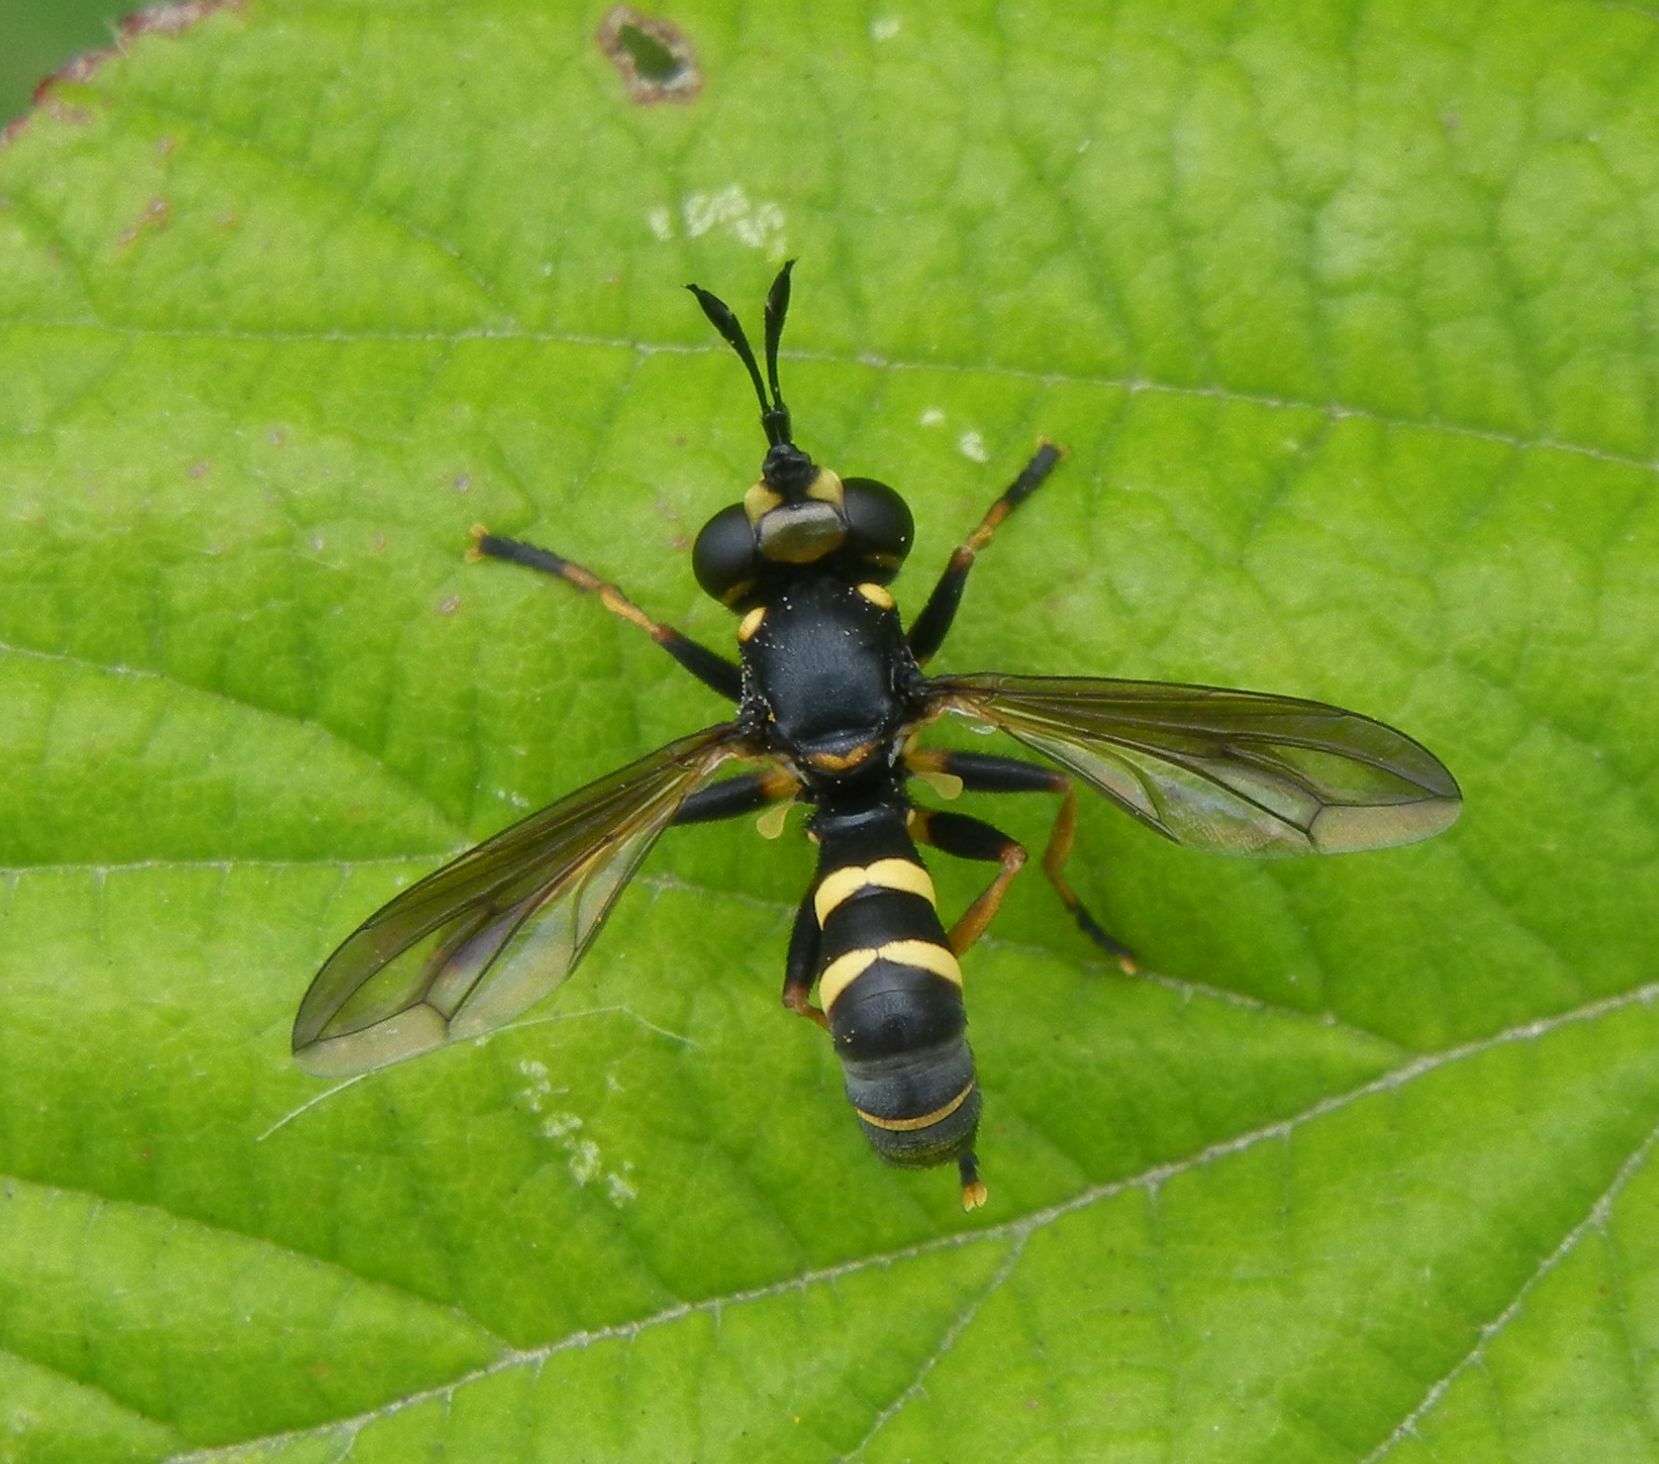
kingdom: Animalia
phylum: Arthropoda
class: Insecta
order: Diptera
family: Conopidae
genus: Conops
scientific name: Conops flavipes
